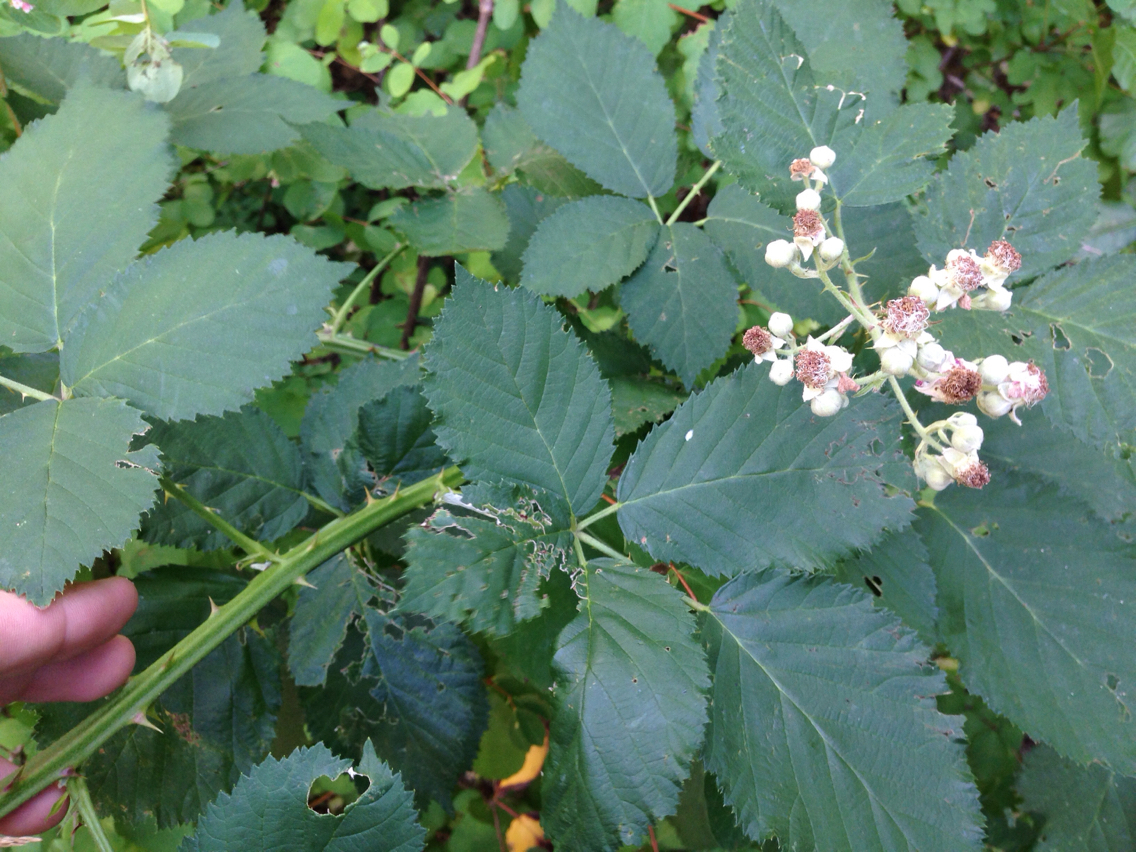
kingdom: Plantae
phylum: Tracheophyta
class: Magnoliopsida
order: Rosales
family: Rosaceae
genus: Rubus
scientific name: Rubus armeniacus
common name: Himalayan blackberry
